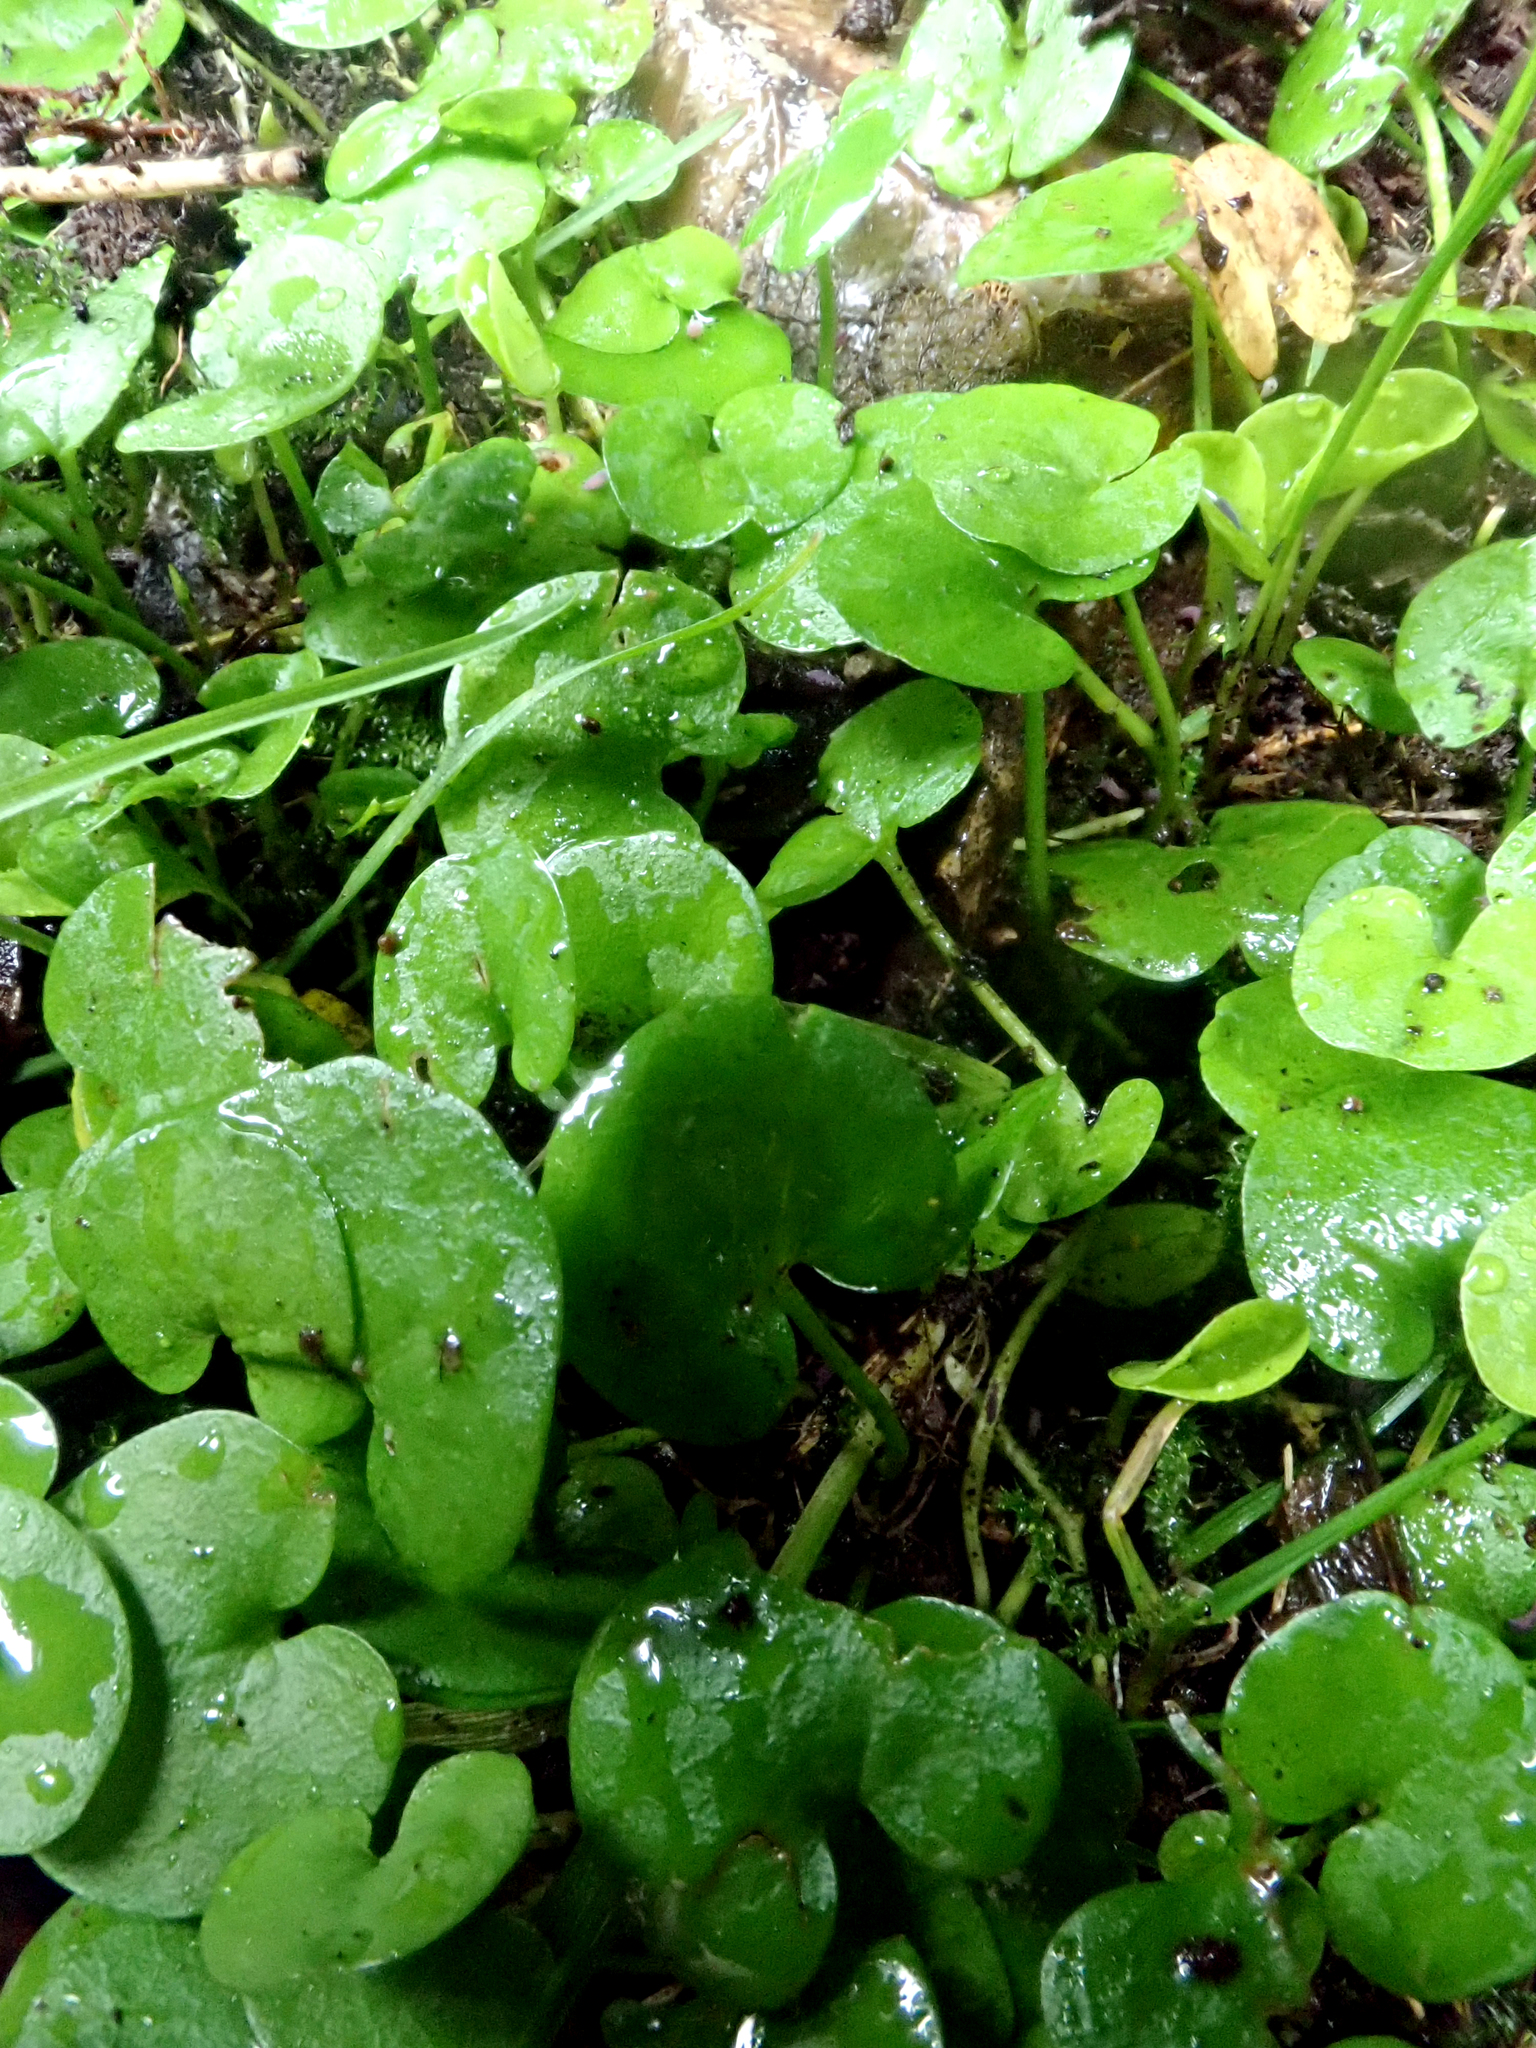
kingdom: Plantae
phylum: Tracheophyta
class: Magnoliopsida
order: Solanales
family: Convolvulaceae
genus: Dichondra
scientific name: Dichondra brevifolia
